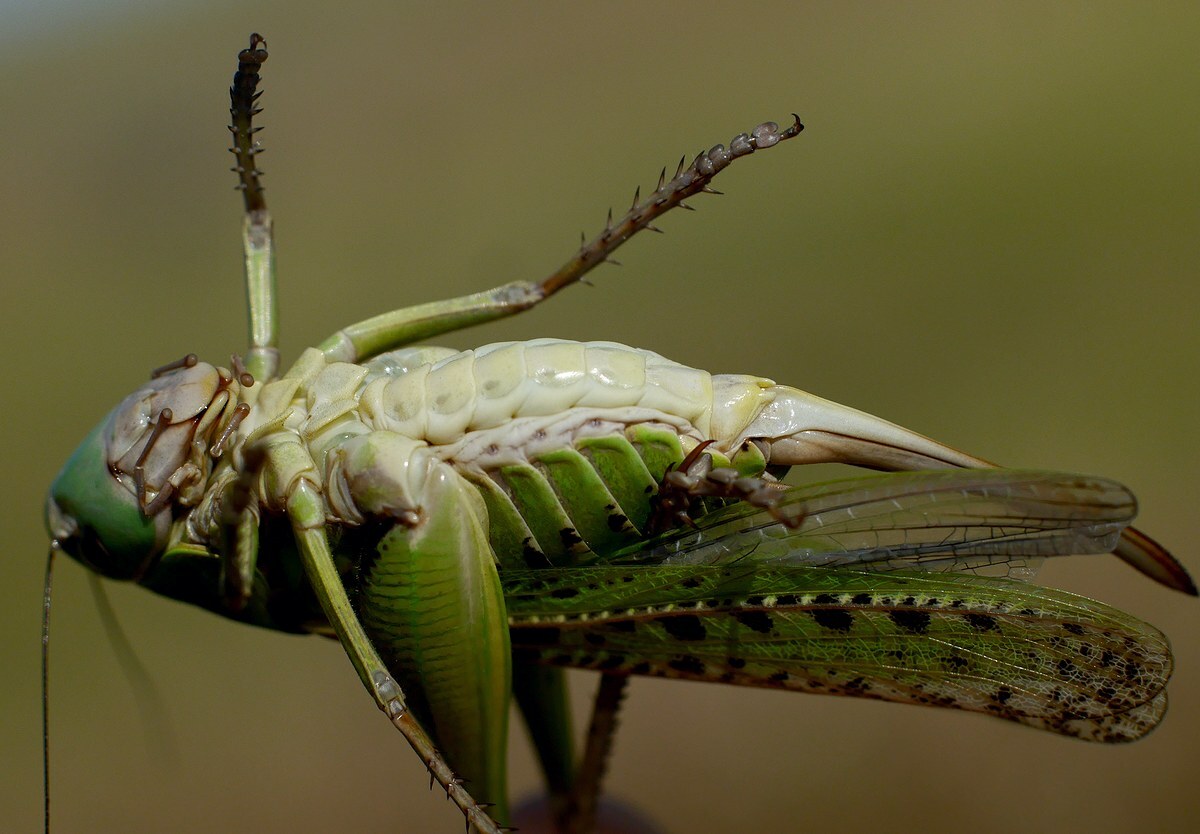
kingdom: Animalia
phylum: Arthropoda
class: Insecta
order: Orthoptera
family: Tettigoniidae
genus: Decticus
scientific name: Decticus verrucivorus
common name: Wart-biter
